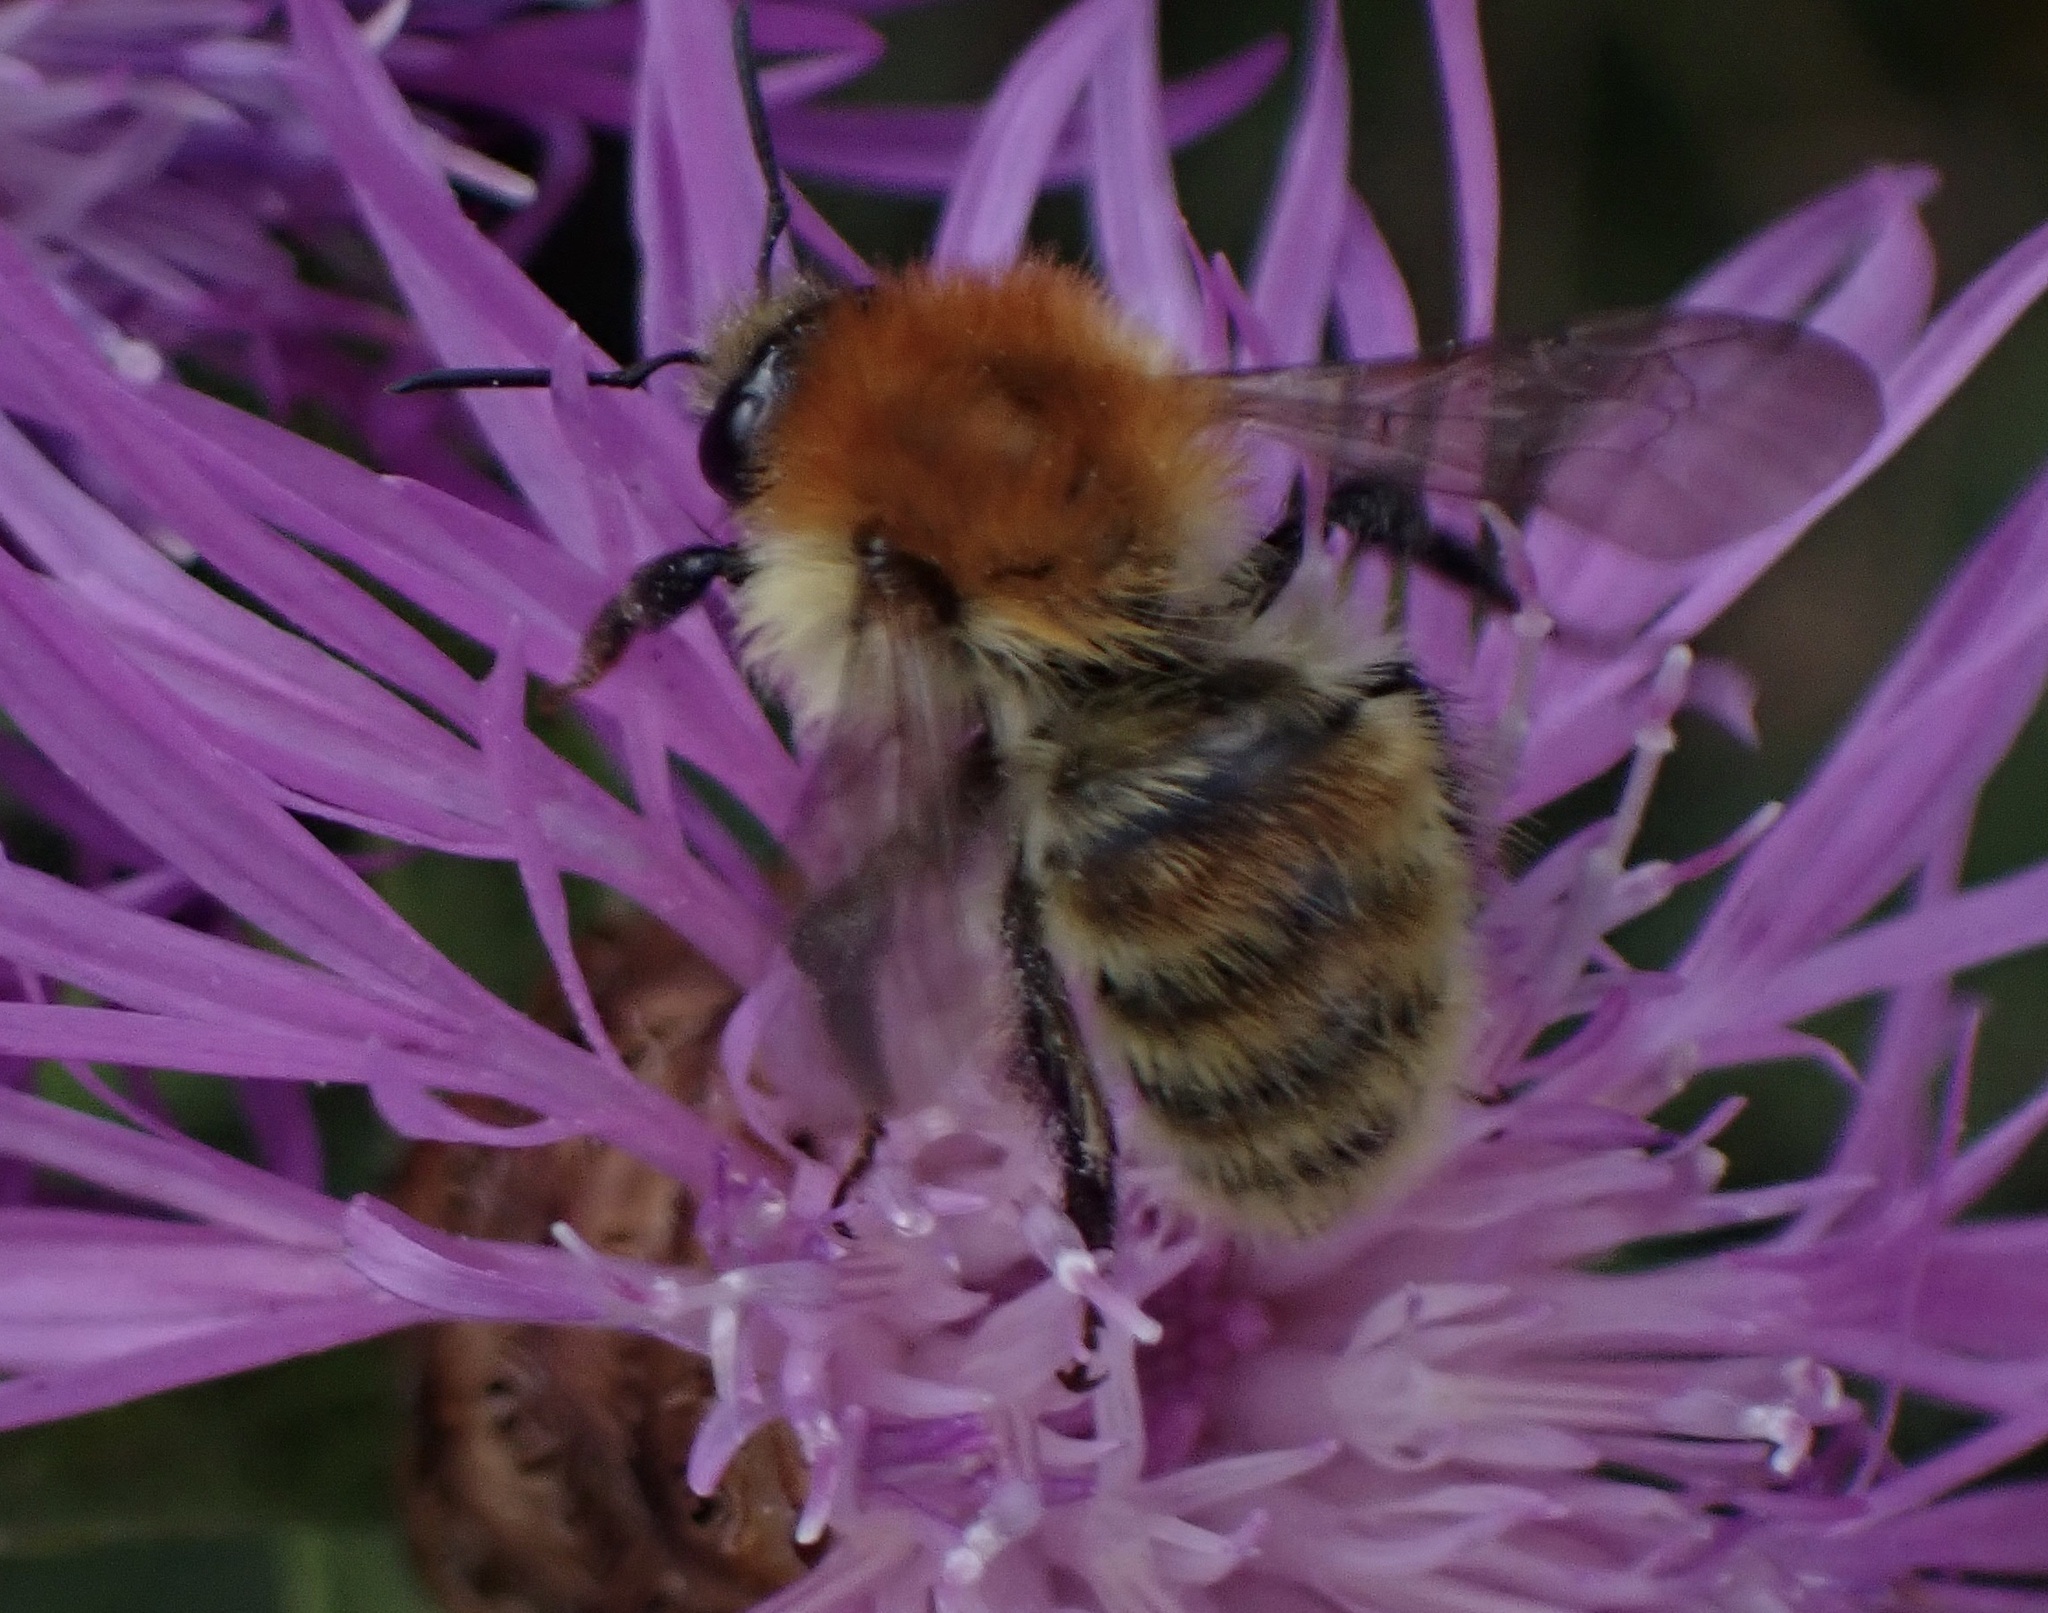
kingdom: Animalia
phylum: Arthropoda
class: Insecta
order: Hymenoptera
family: Apidae
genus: Bombus
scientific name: Bombus humilis
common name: Brown-banded carder-bee
